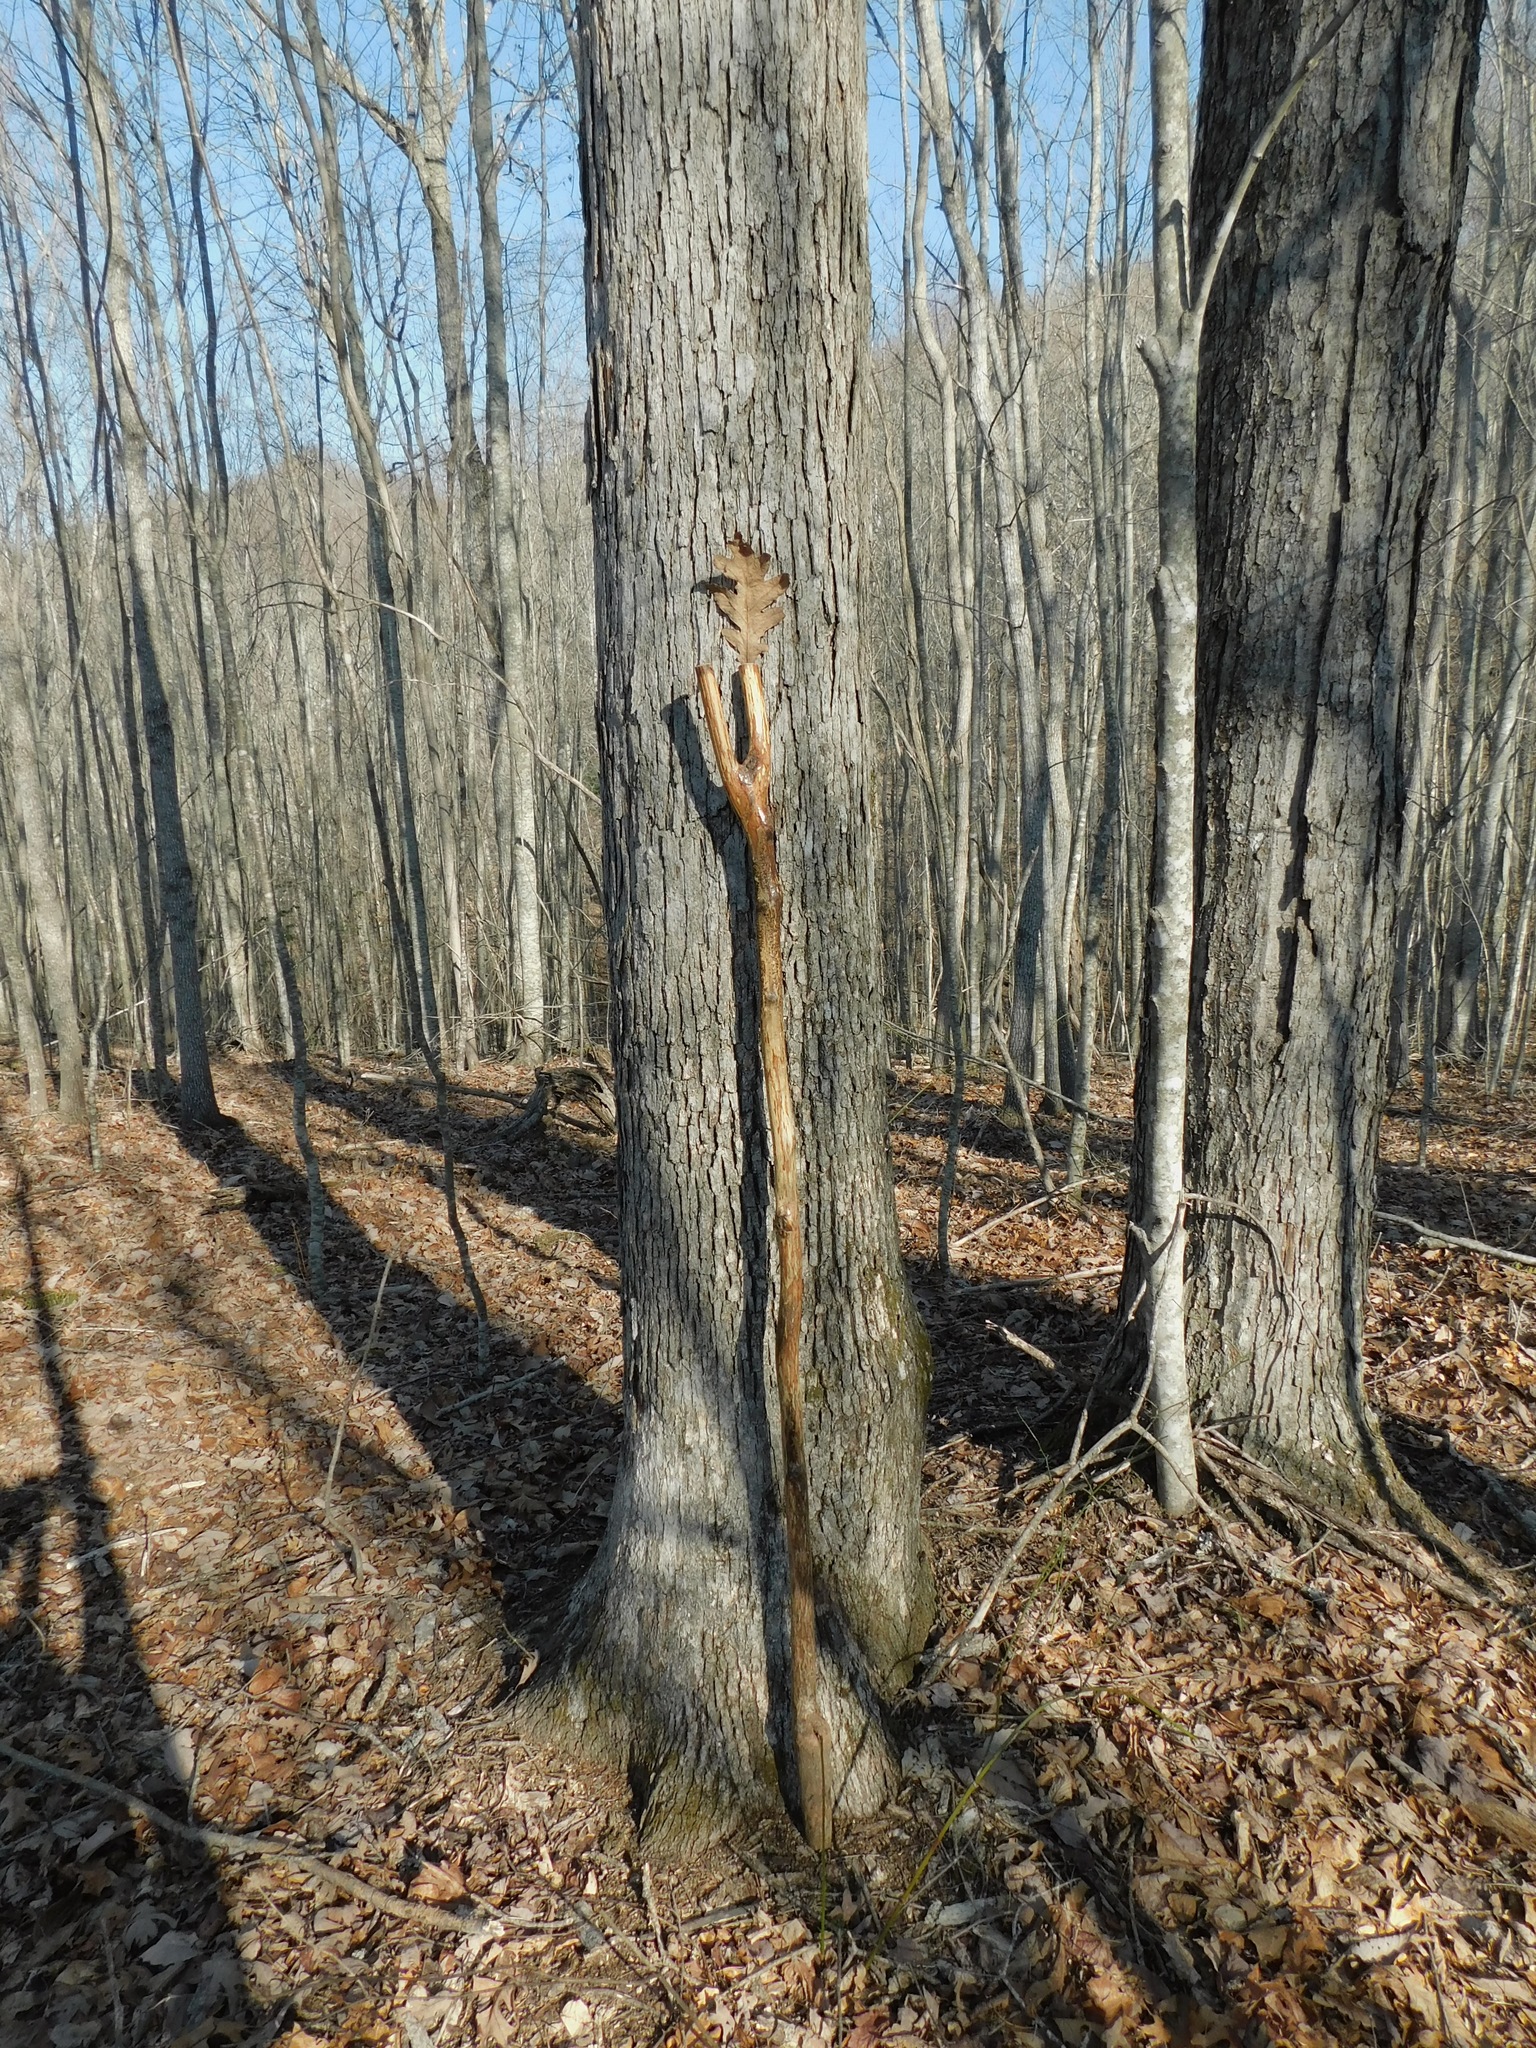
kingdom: Plantae
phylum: Tracheophyta
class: Magnoliopsida
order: Fagales
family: Fagaceae
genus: Quercus
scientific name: Quercus alba
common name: White oak
